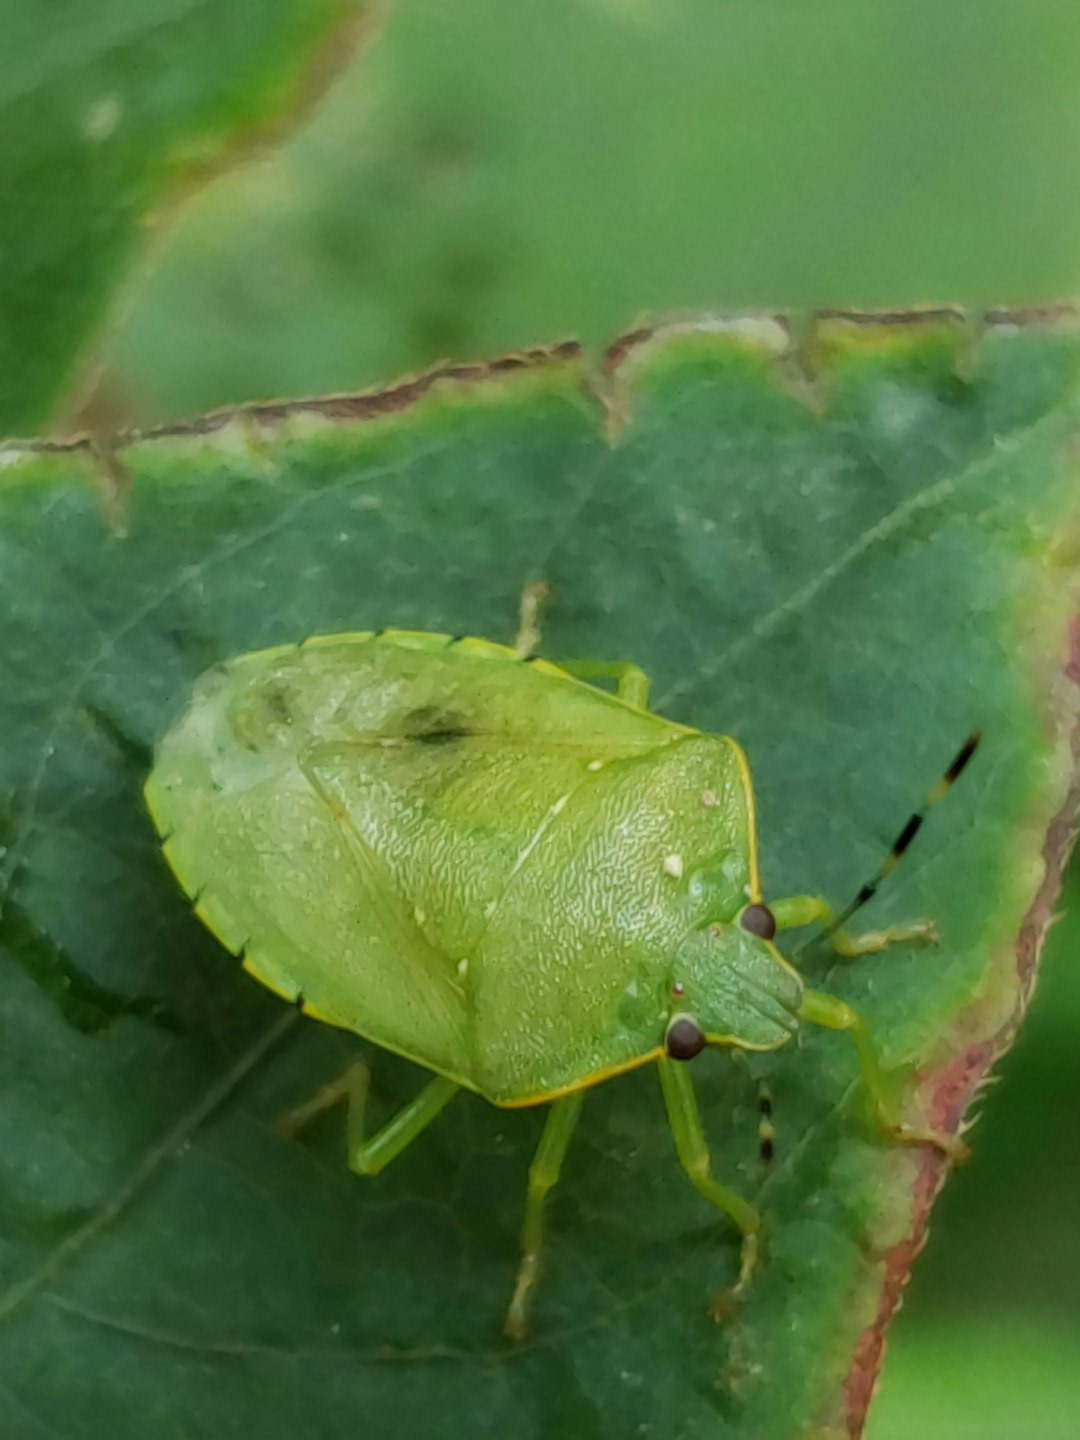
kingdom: Animalia
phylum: Arthropoda
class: Insecta
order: Hemiptera
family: Pentatomidae
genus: Chinavia
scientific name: Chinavia hilaris
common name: Green stink bug
